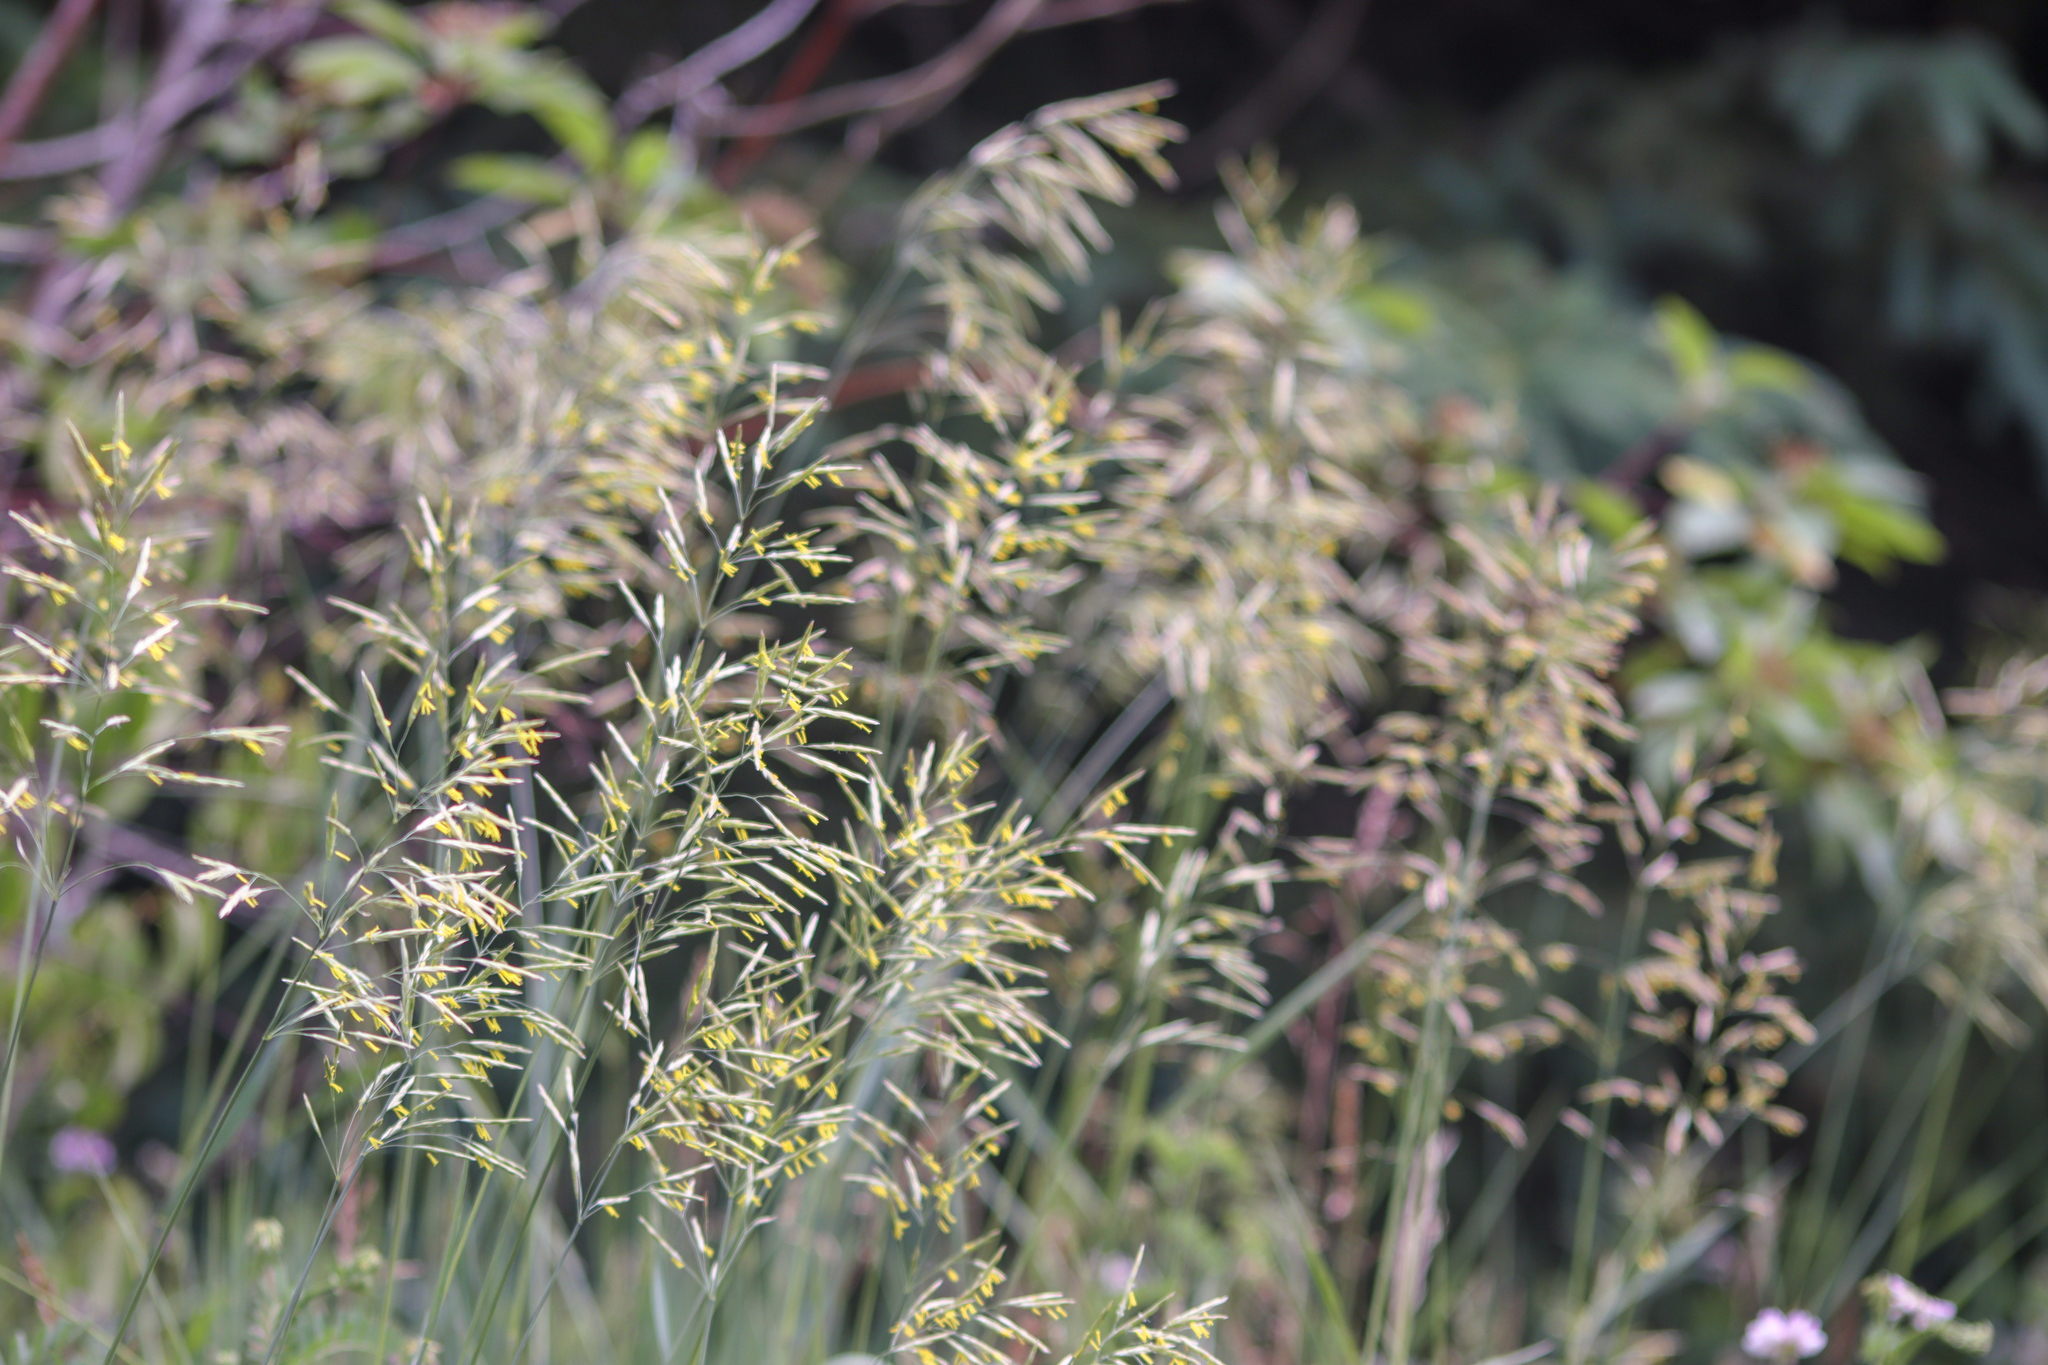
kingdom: Plantae
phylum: Tracheophyta
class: Liliopsida
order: Poales
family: Poaceae
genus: Bromus
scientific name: Bromus inermis
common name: Smooth brome
